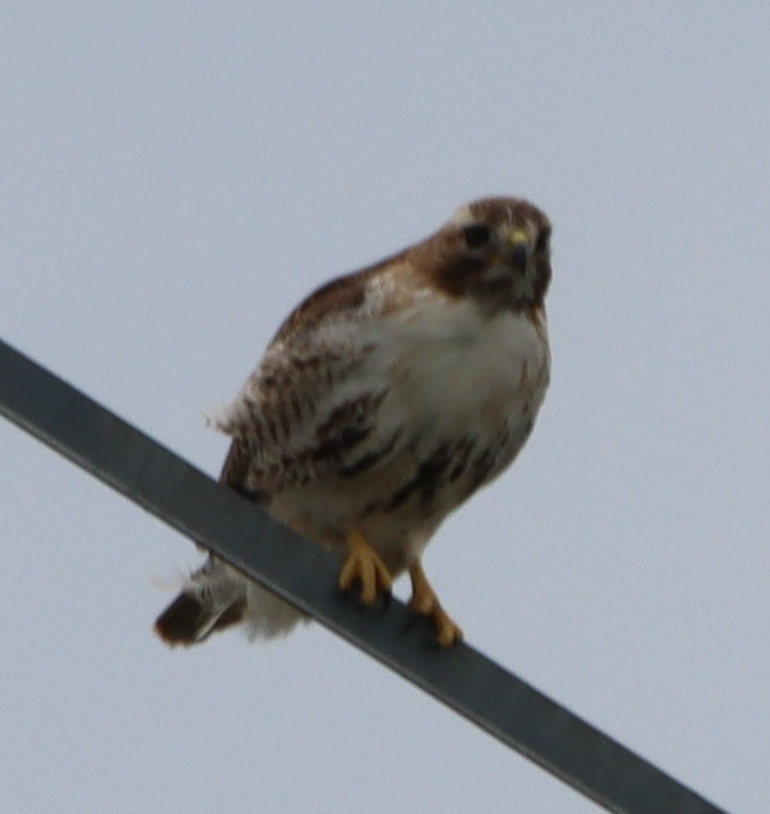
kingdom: Animalia
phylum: Chordata
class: Aves
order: Accipitriformes
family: Accipitridae
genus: Buteo
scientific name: Buteo jamaicensis
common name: Red-tailed hawk
